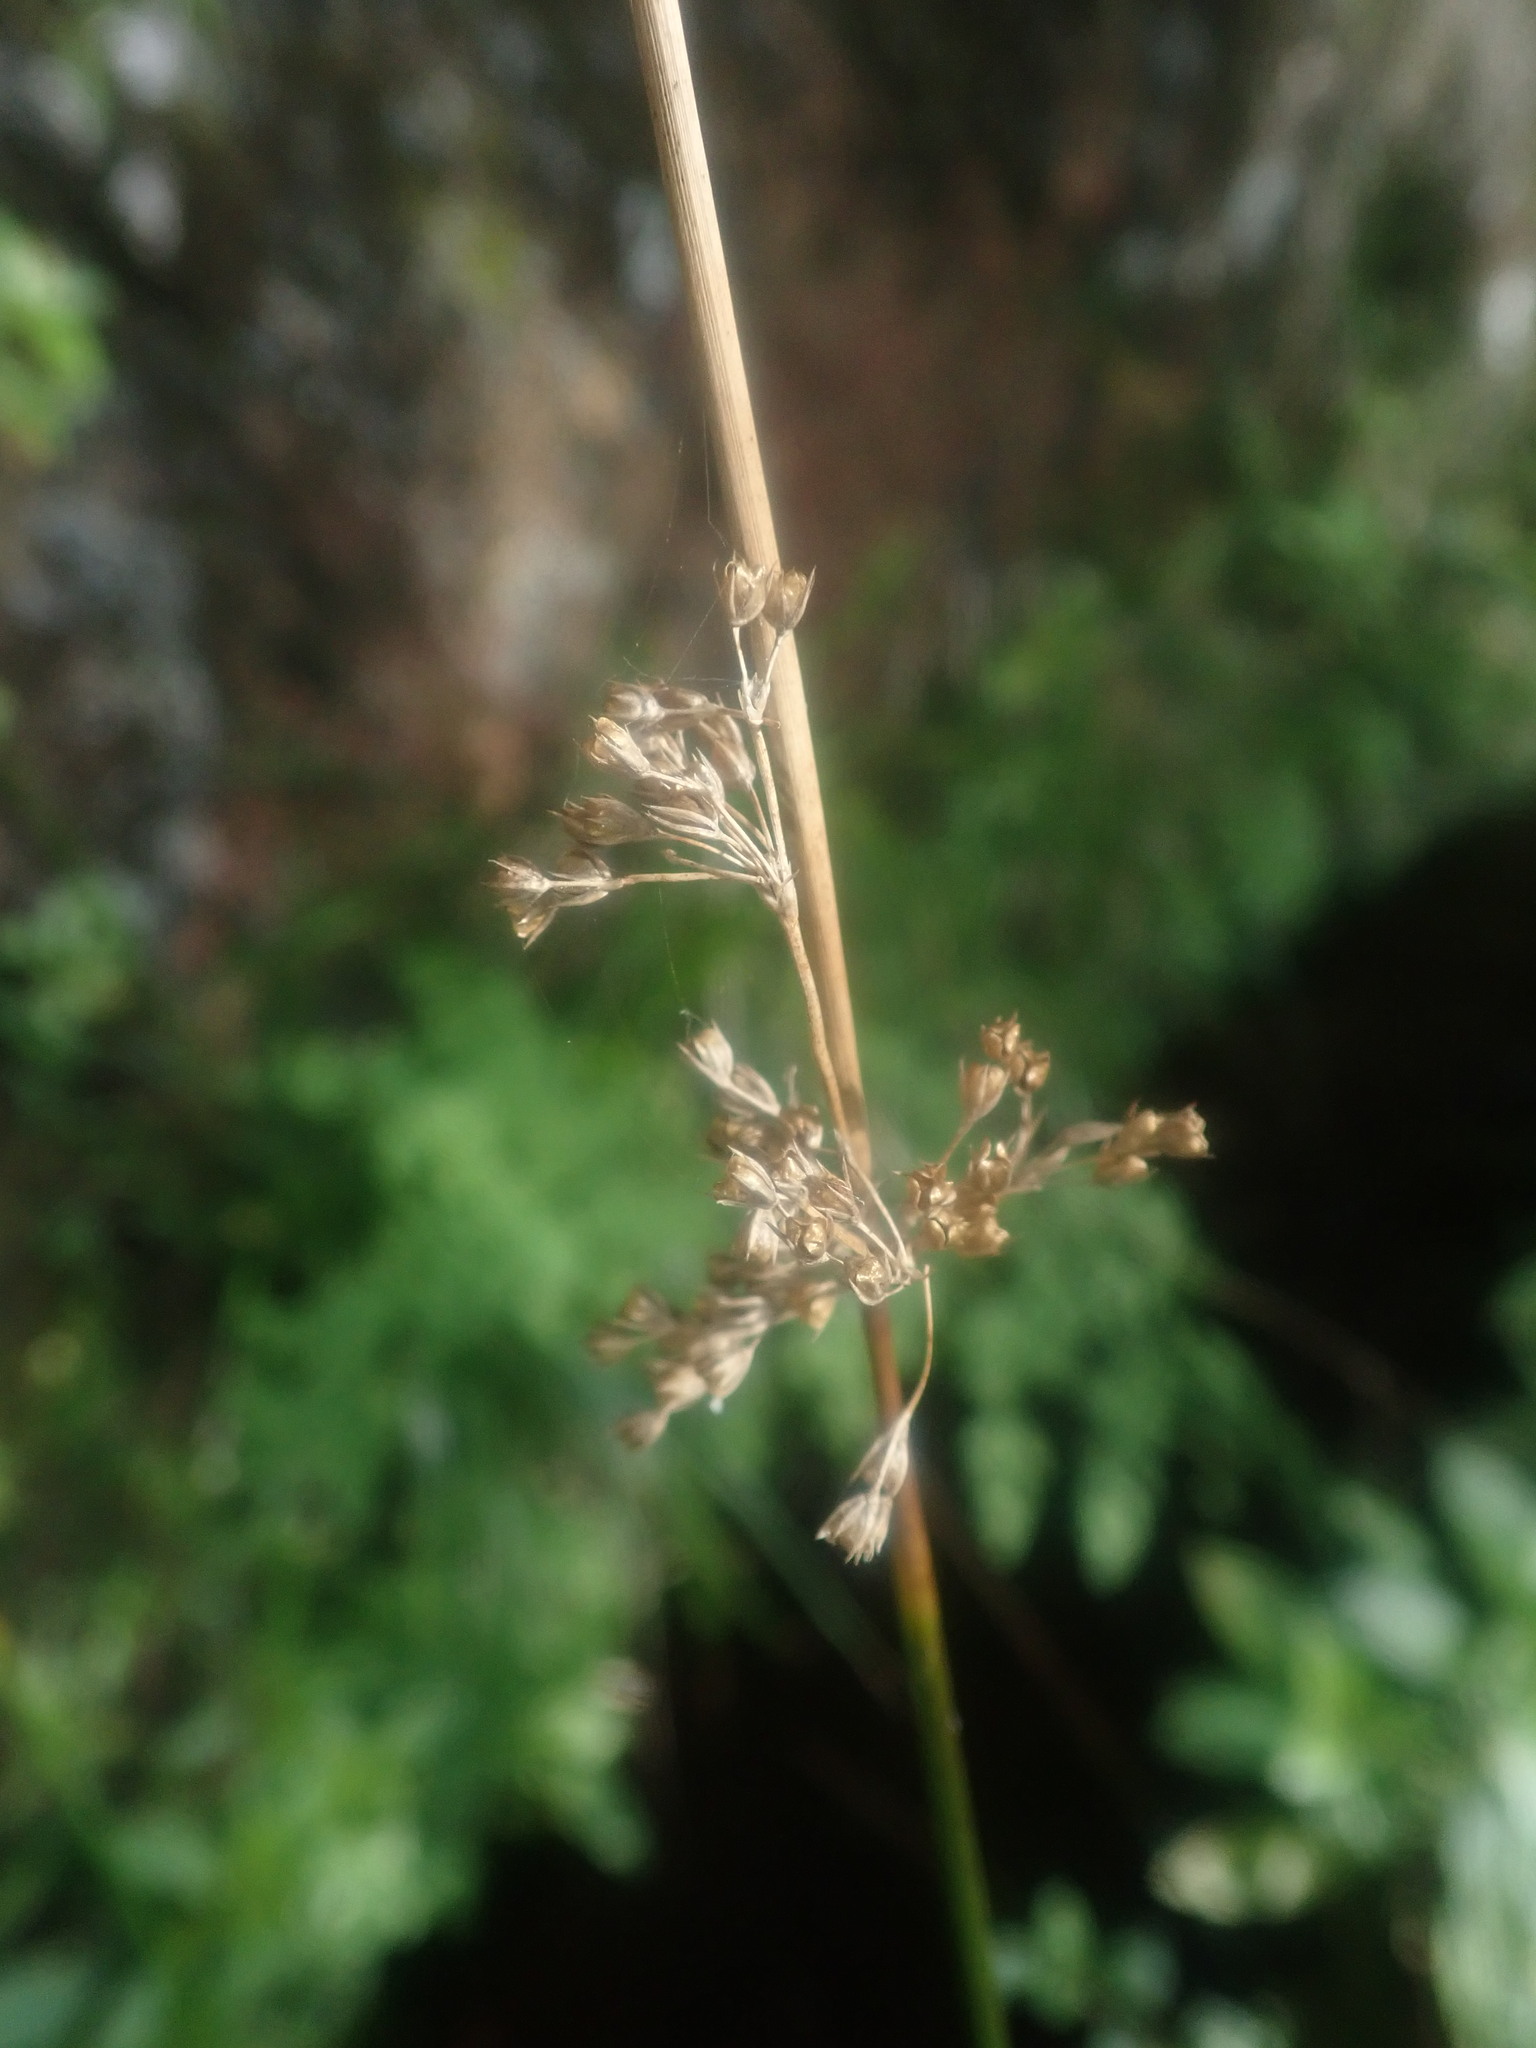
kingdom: Plantae
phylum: Tracheophyta
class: Liliopsida
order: Poales
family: Juncaceae
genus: Juncus
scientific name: Juncus effusus
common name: Soft rush
